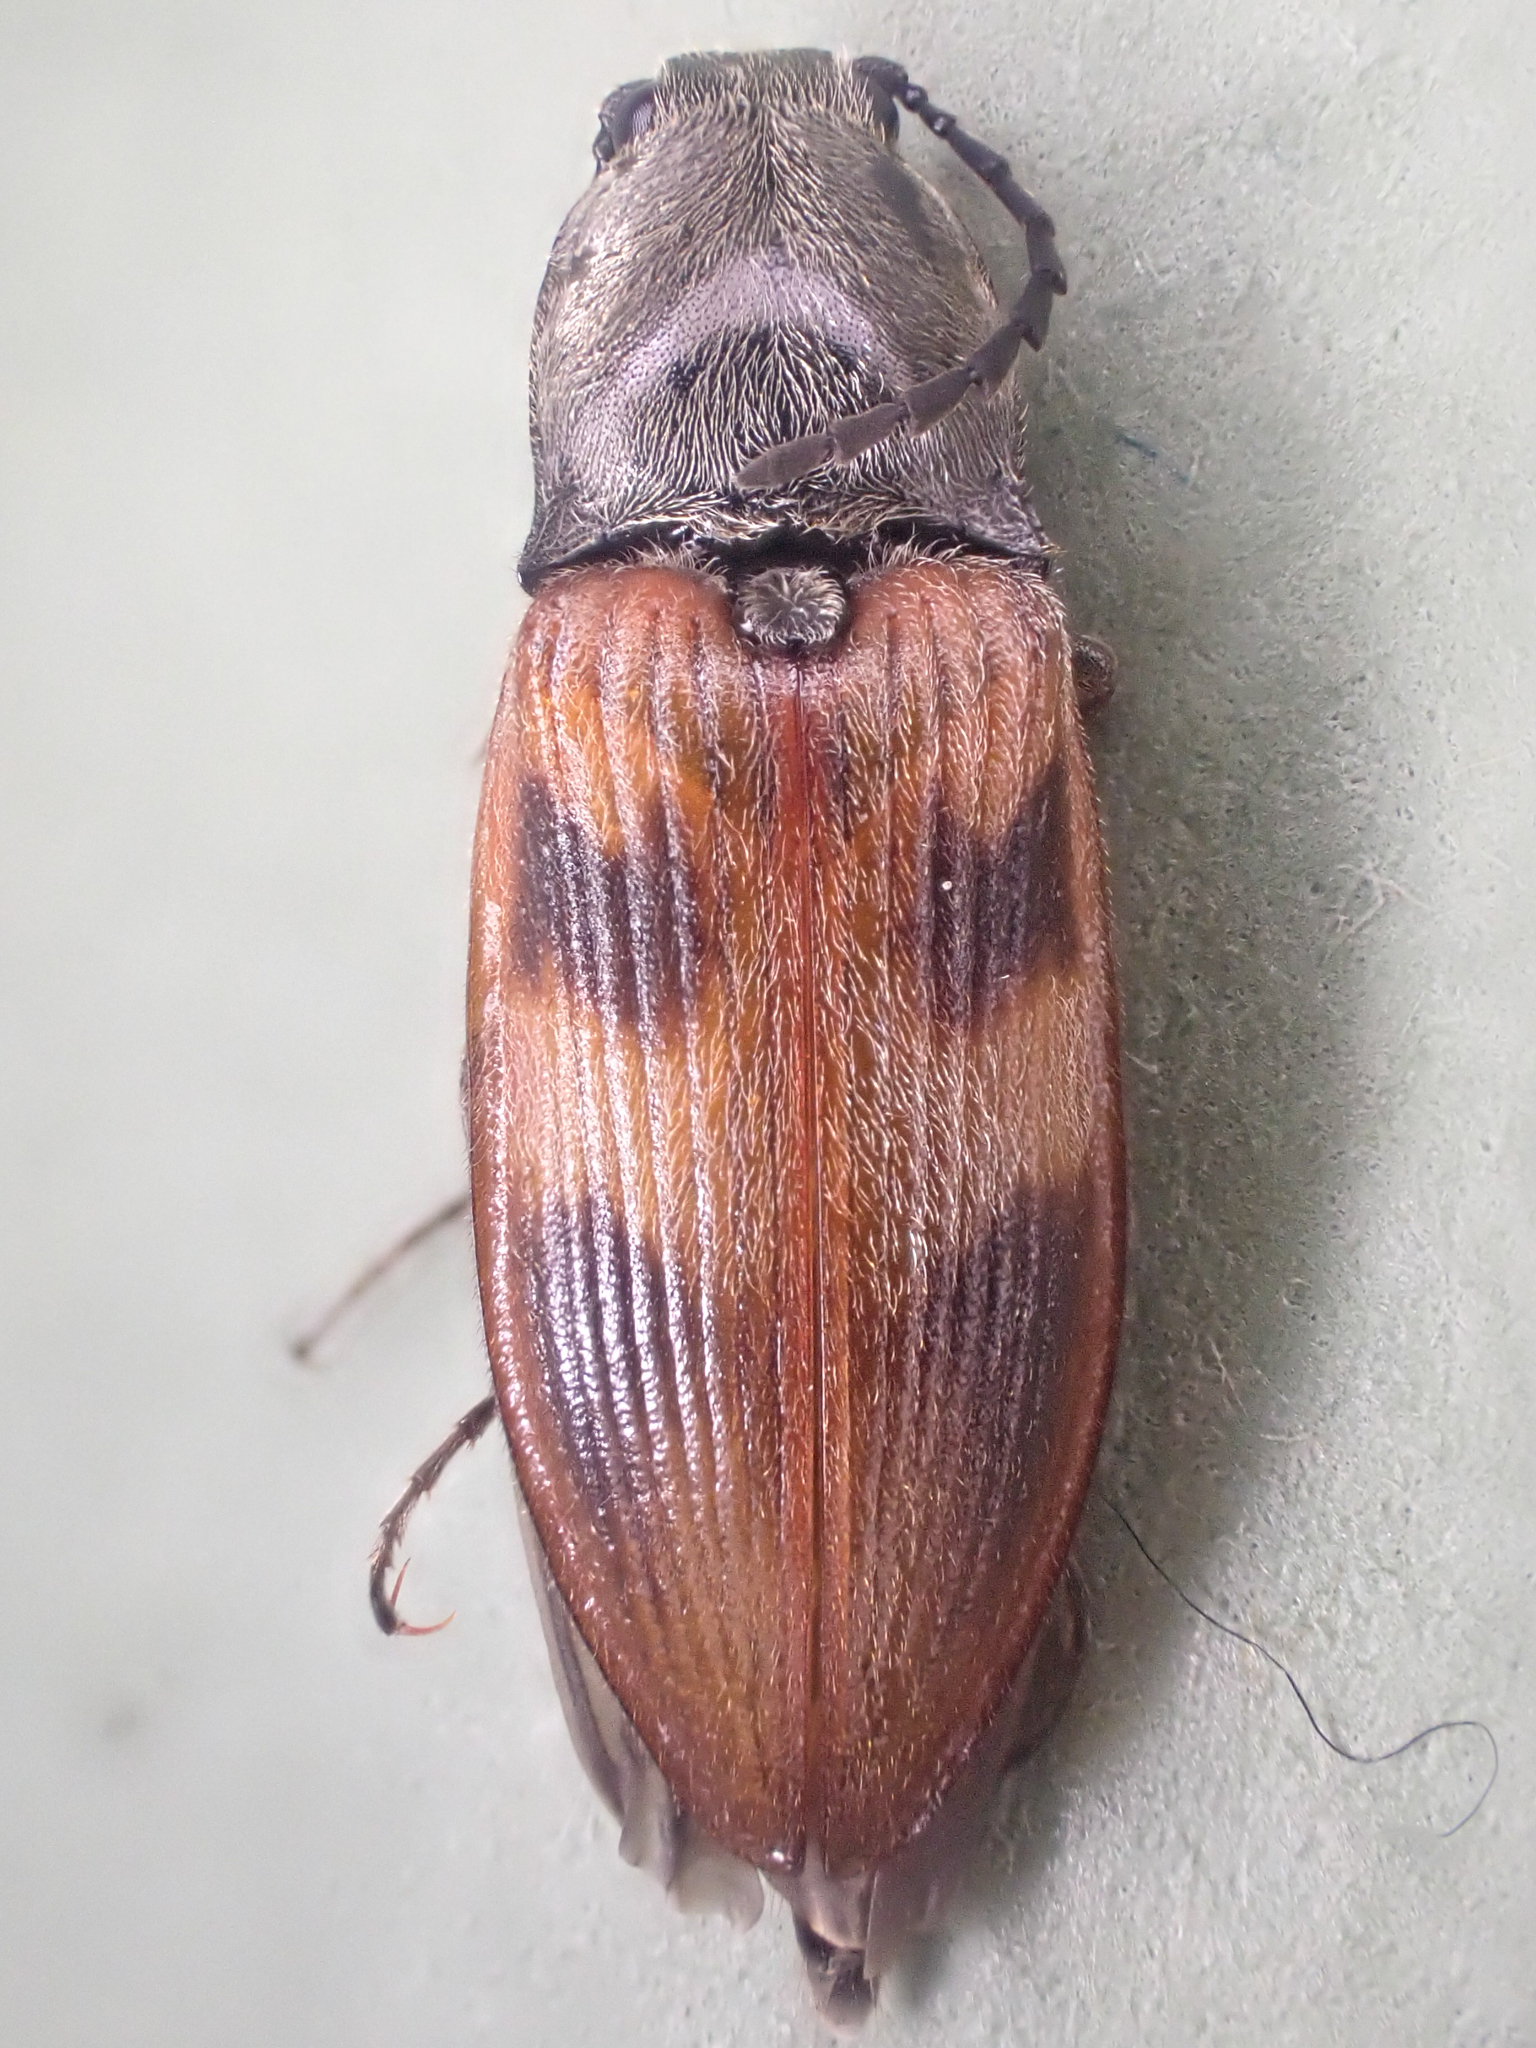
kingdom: Animalia
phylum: Arthropoda
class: Insecta
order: Coleoptera
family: Elateridae
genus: Stropenron
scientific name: Stropenron nigricollis
